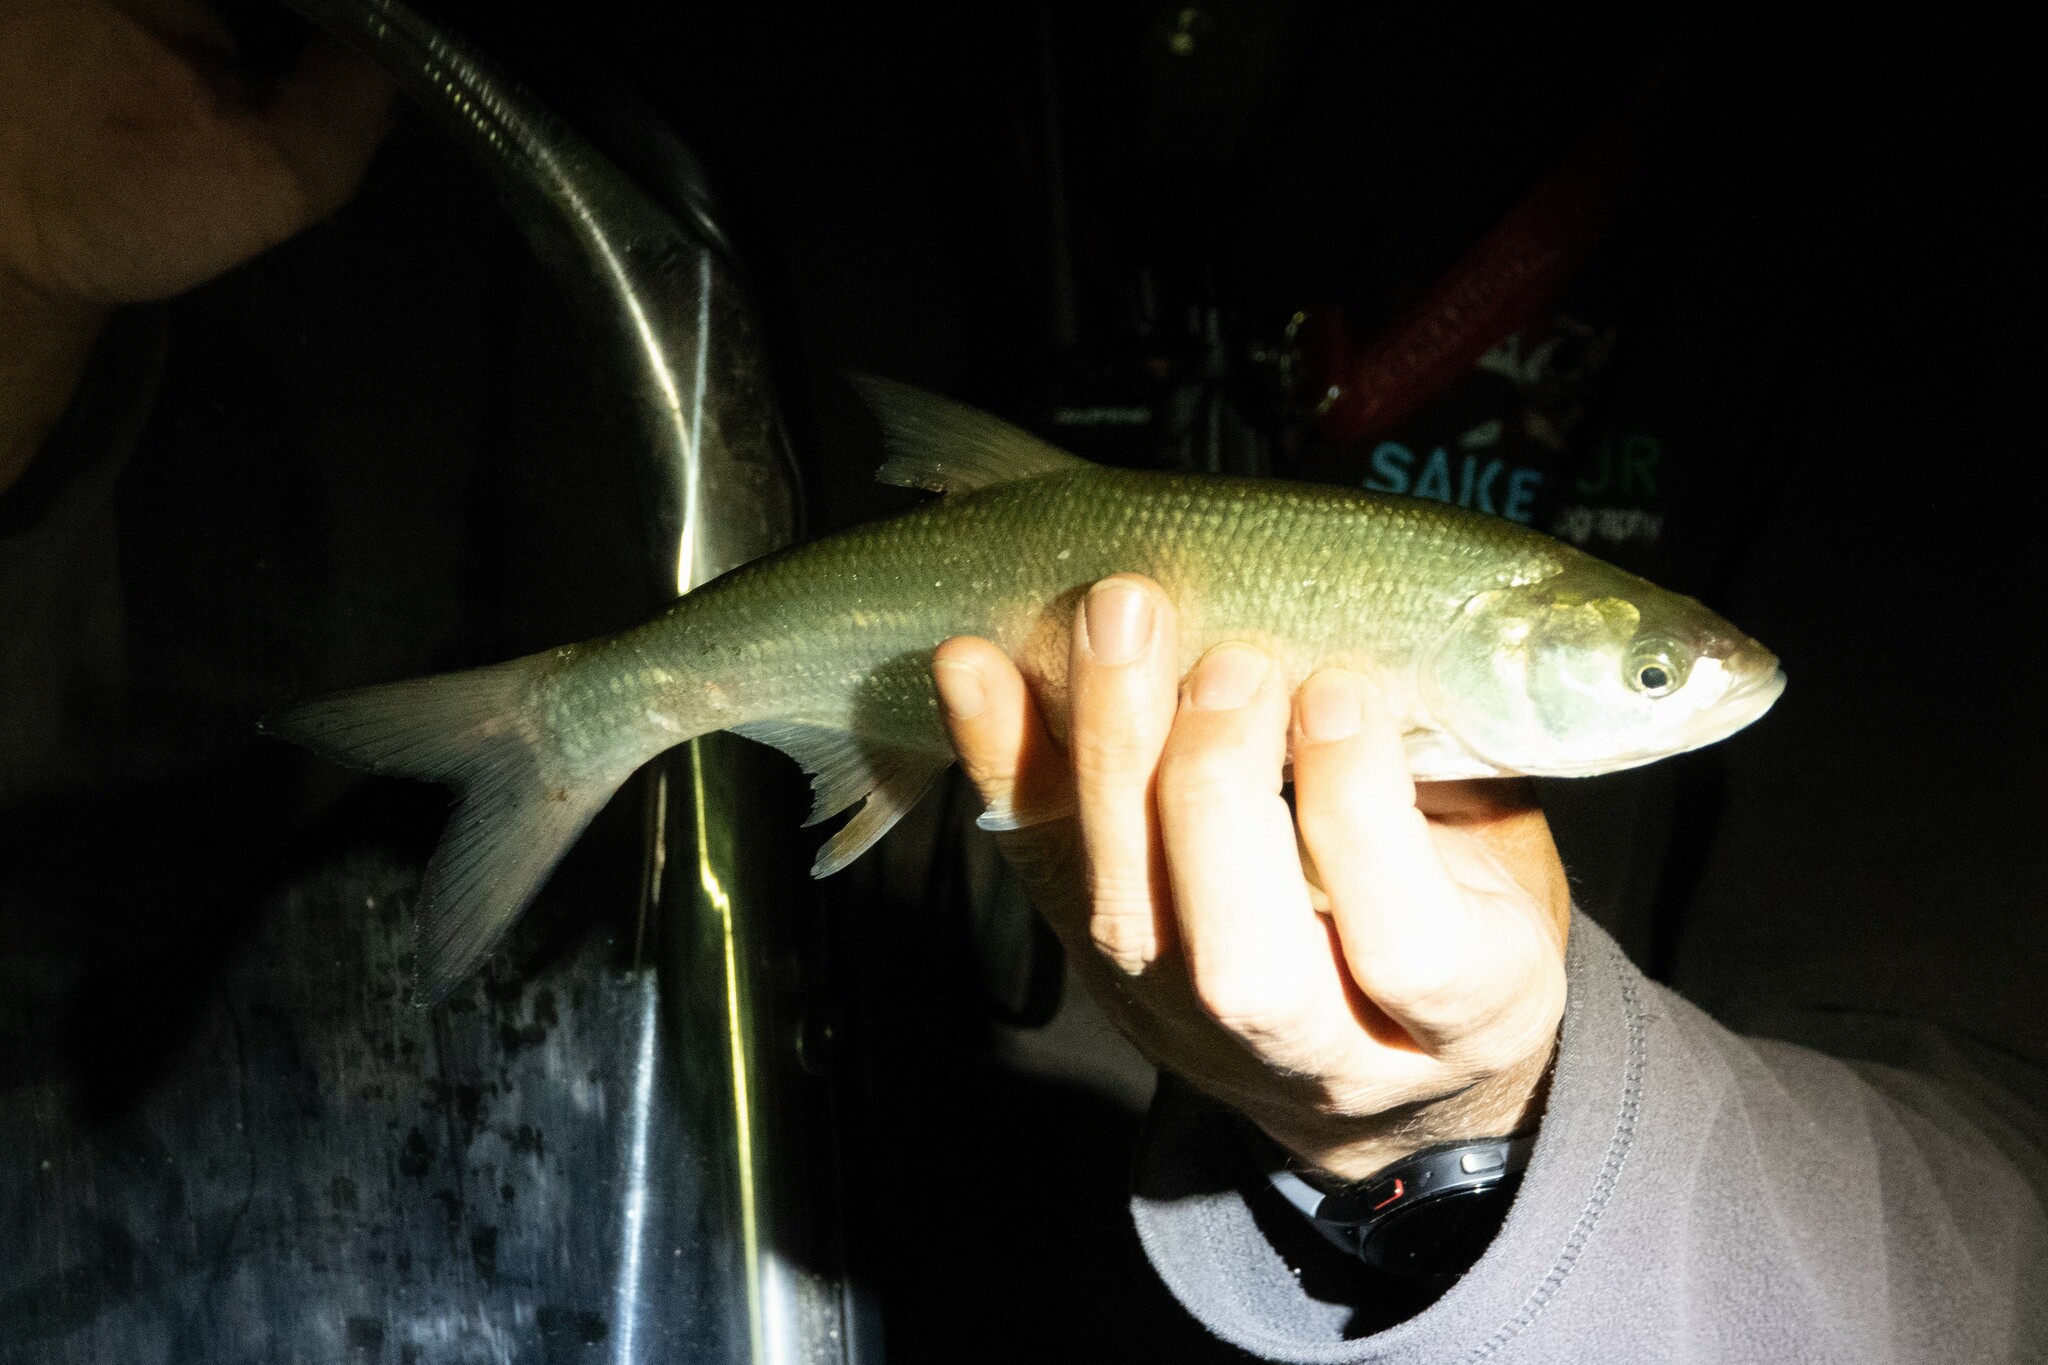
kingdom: Animalia
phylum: Chordata
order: Cypriniformes
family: Cyprinidae
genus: Leuciscus
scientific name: Leuciscus aspius
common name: Asp
